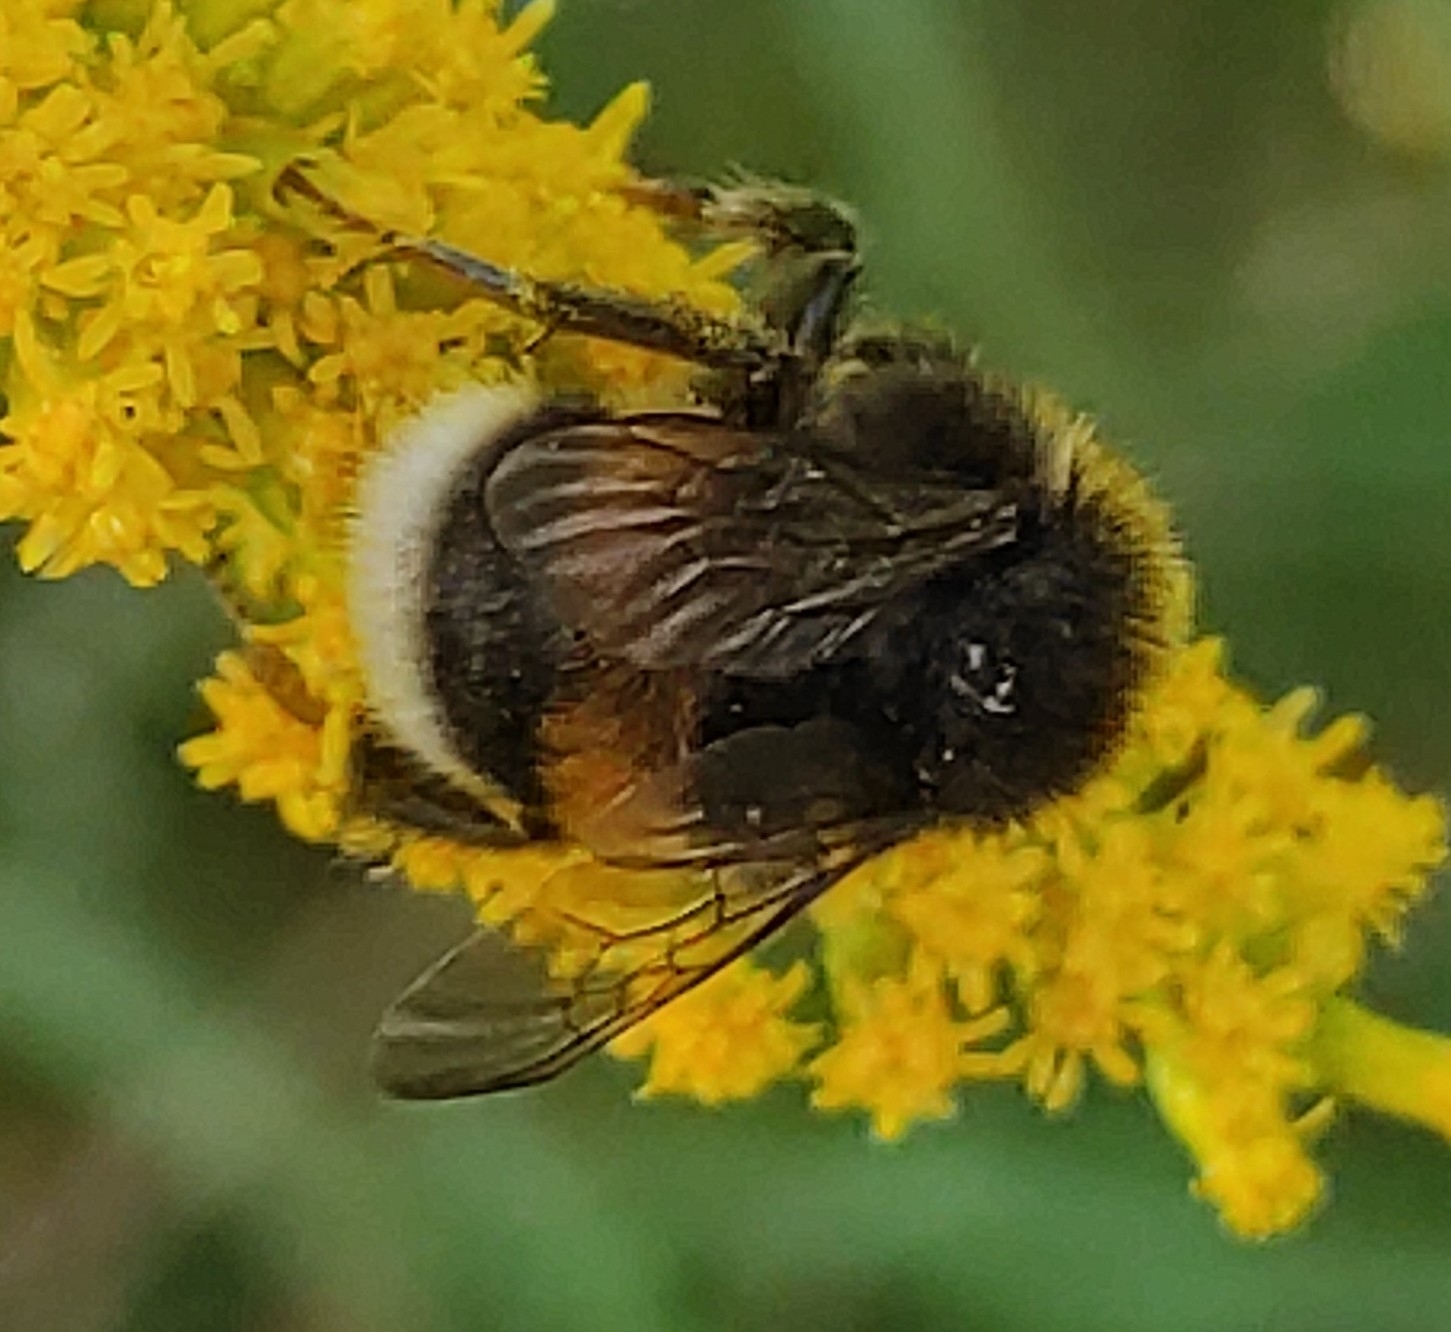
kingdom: Animalia
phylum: Arthropoda
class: Insecta
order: Hymenoptera
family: Apidae
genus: Bombus
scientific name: Bombus
